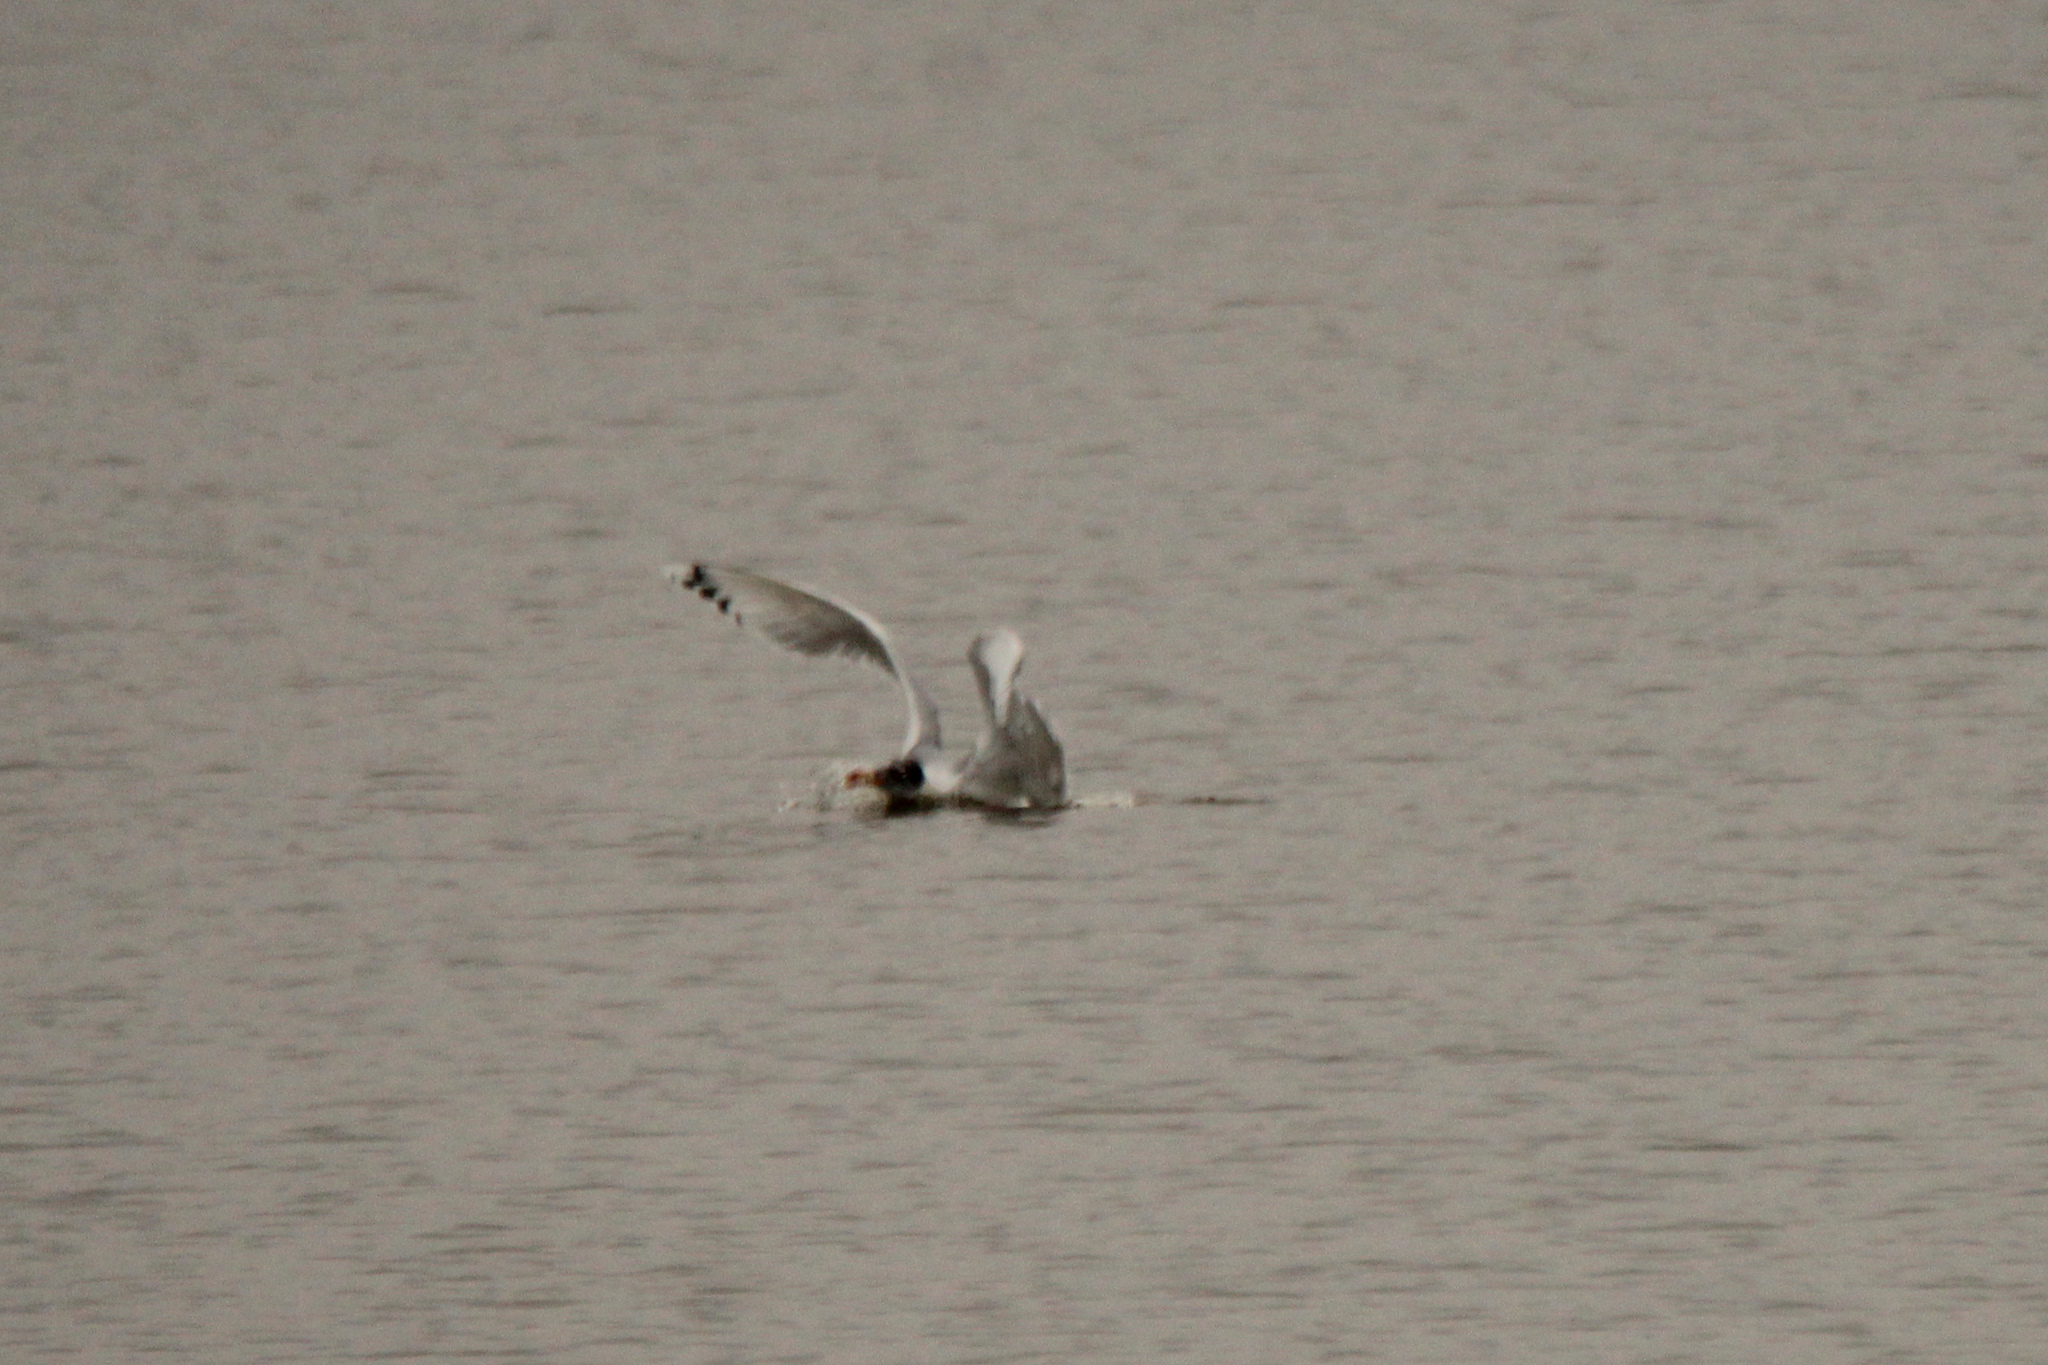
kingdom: Animalia
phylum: Chordata
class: Aves
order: Charadriiformes
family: Laridae
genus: Ichthyaetus
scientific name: Ichthyaetus ichthyaetus
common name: Pallas's gull
